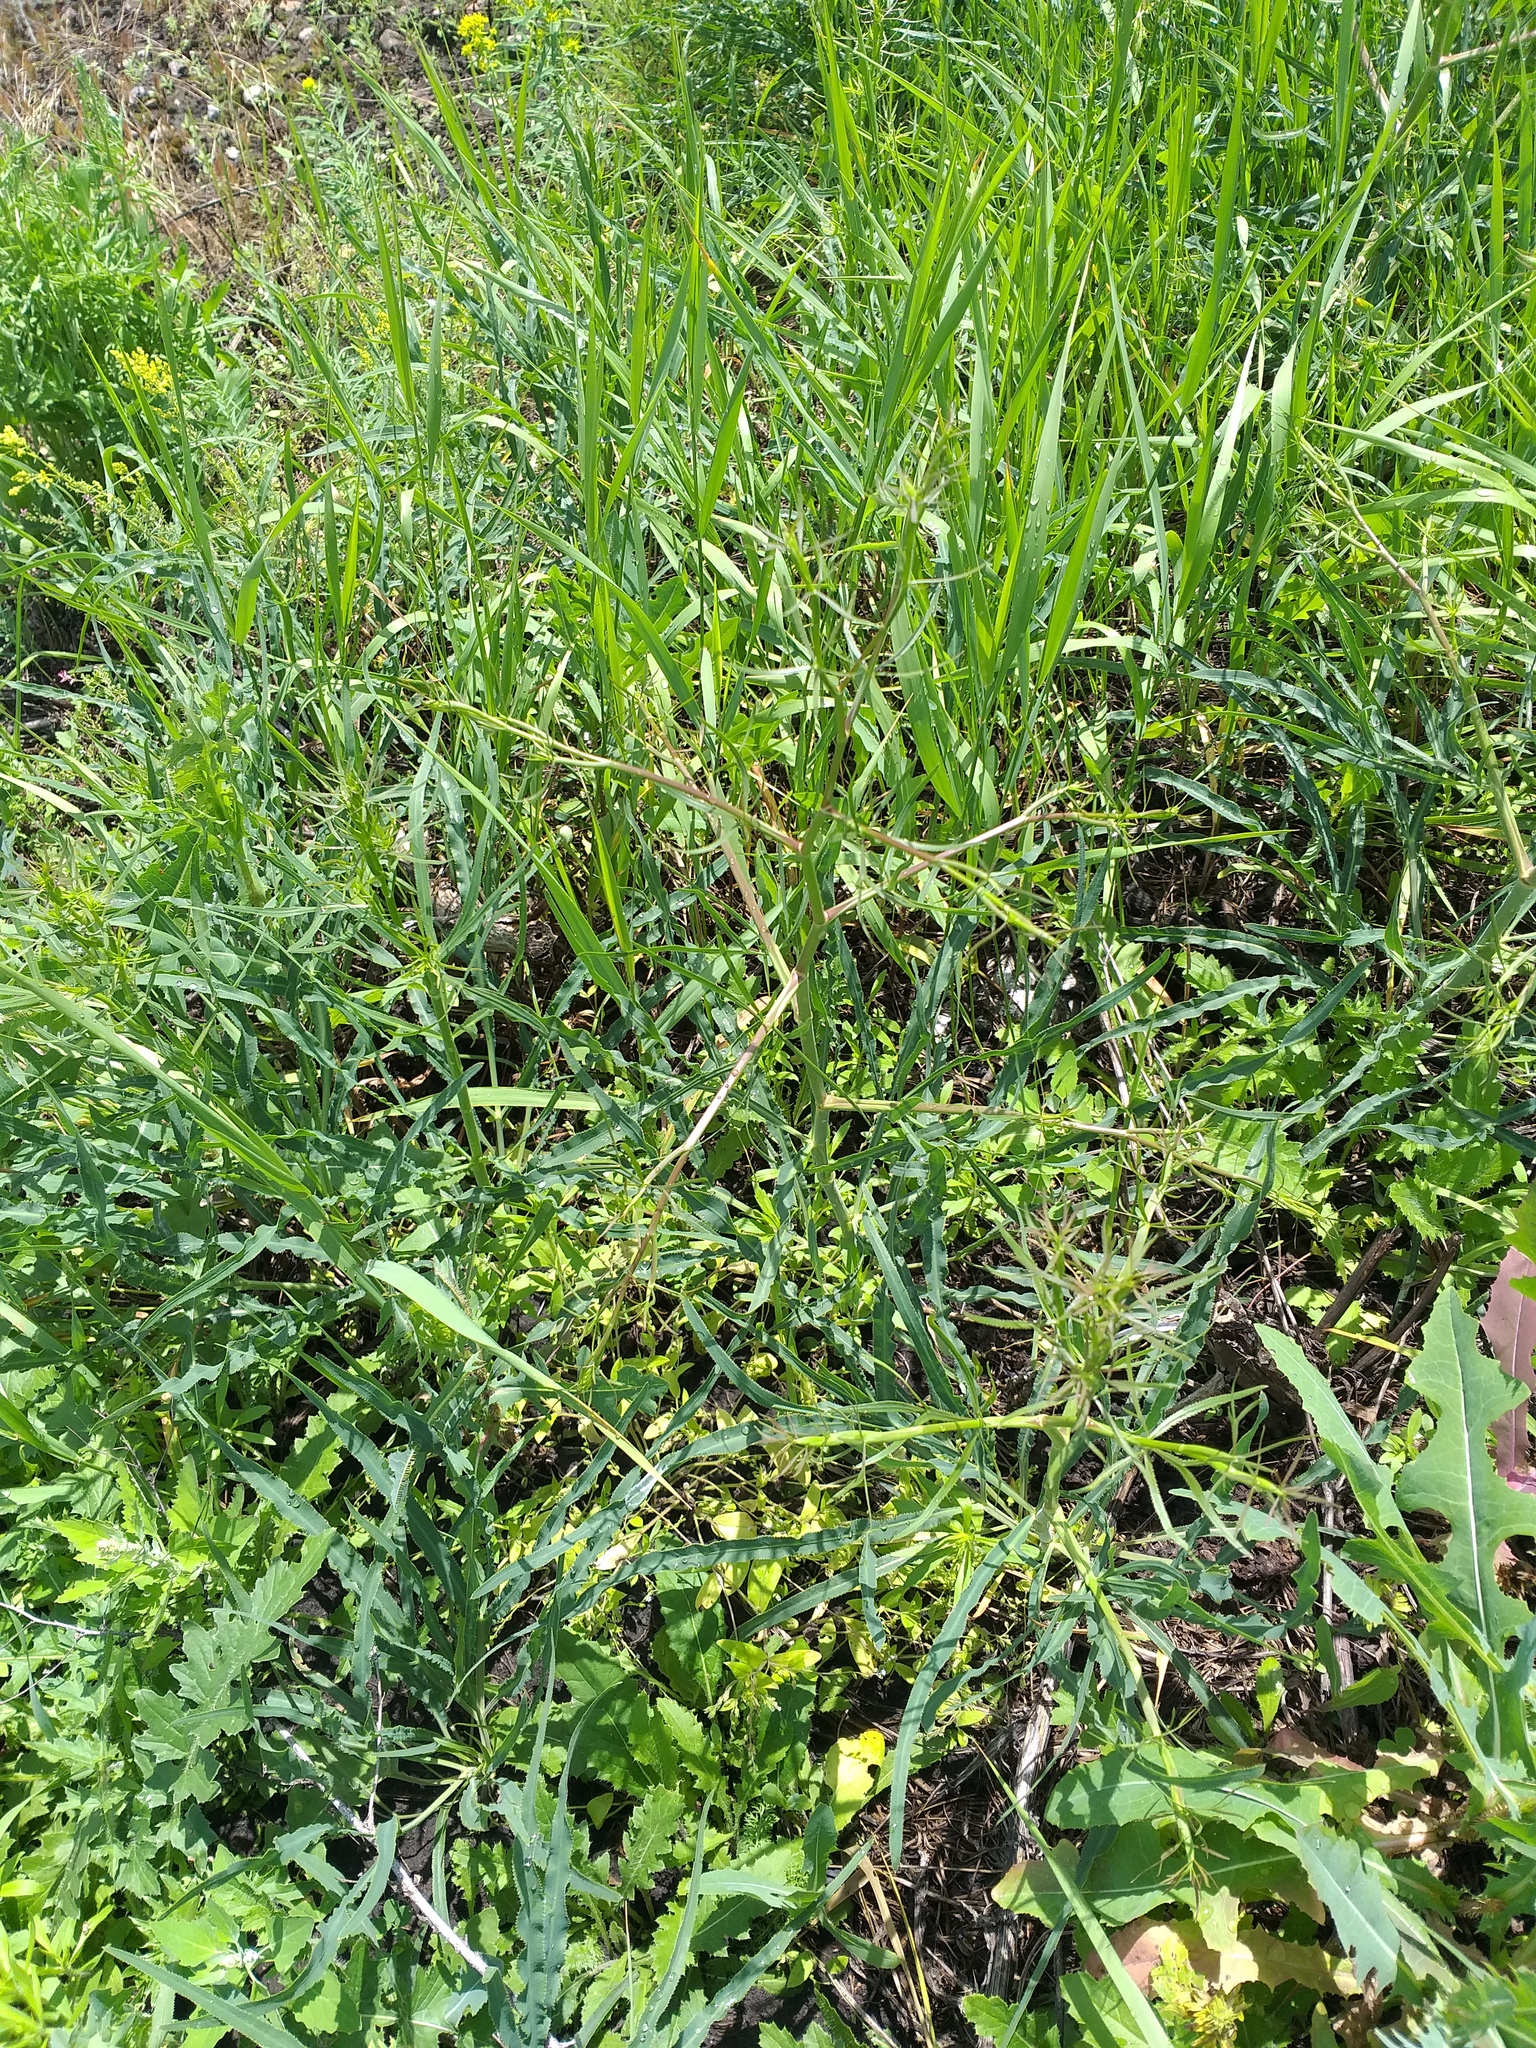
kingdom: Plantae
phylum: Tracheophyta
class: Magnoliopsida
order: Apiales
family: Apiaceae
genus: Falcaria
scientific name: Falcaria vulgaris
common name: Longleaf
